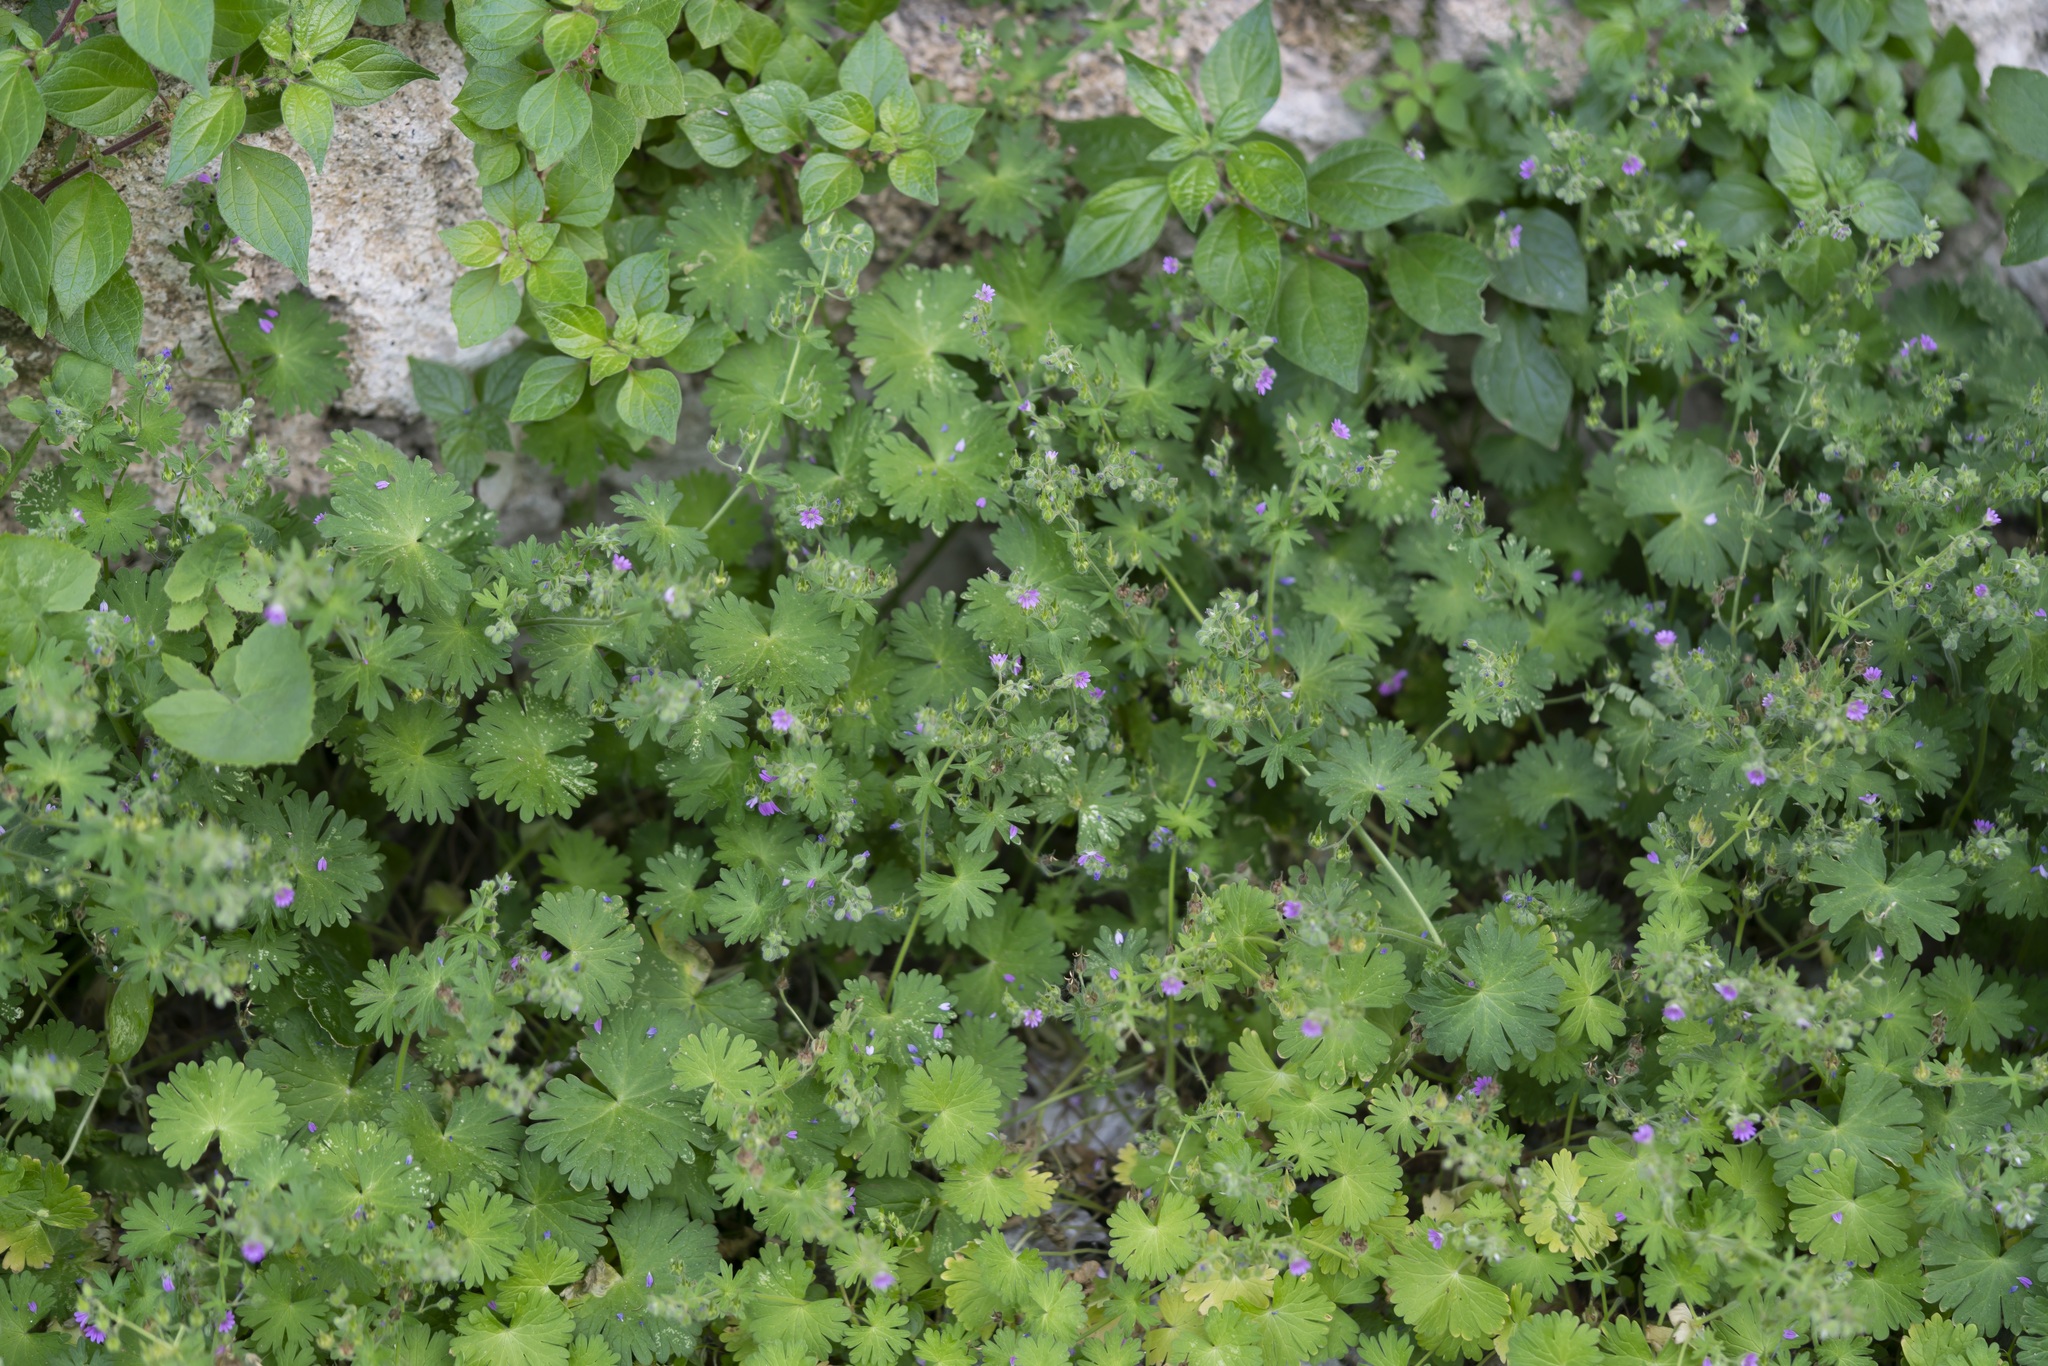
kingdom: Plantae
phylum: Tracheophyta
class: Magnoliopsida
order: Geraniales
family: Geraniaceae
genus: Geranium
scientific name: Geranium molle
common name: Dove's-foot crane's-bill
